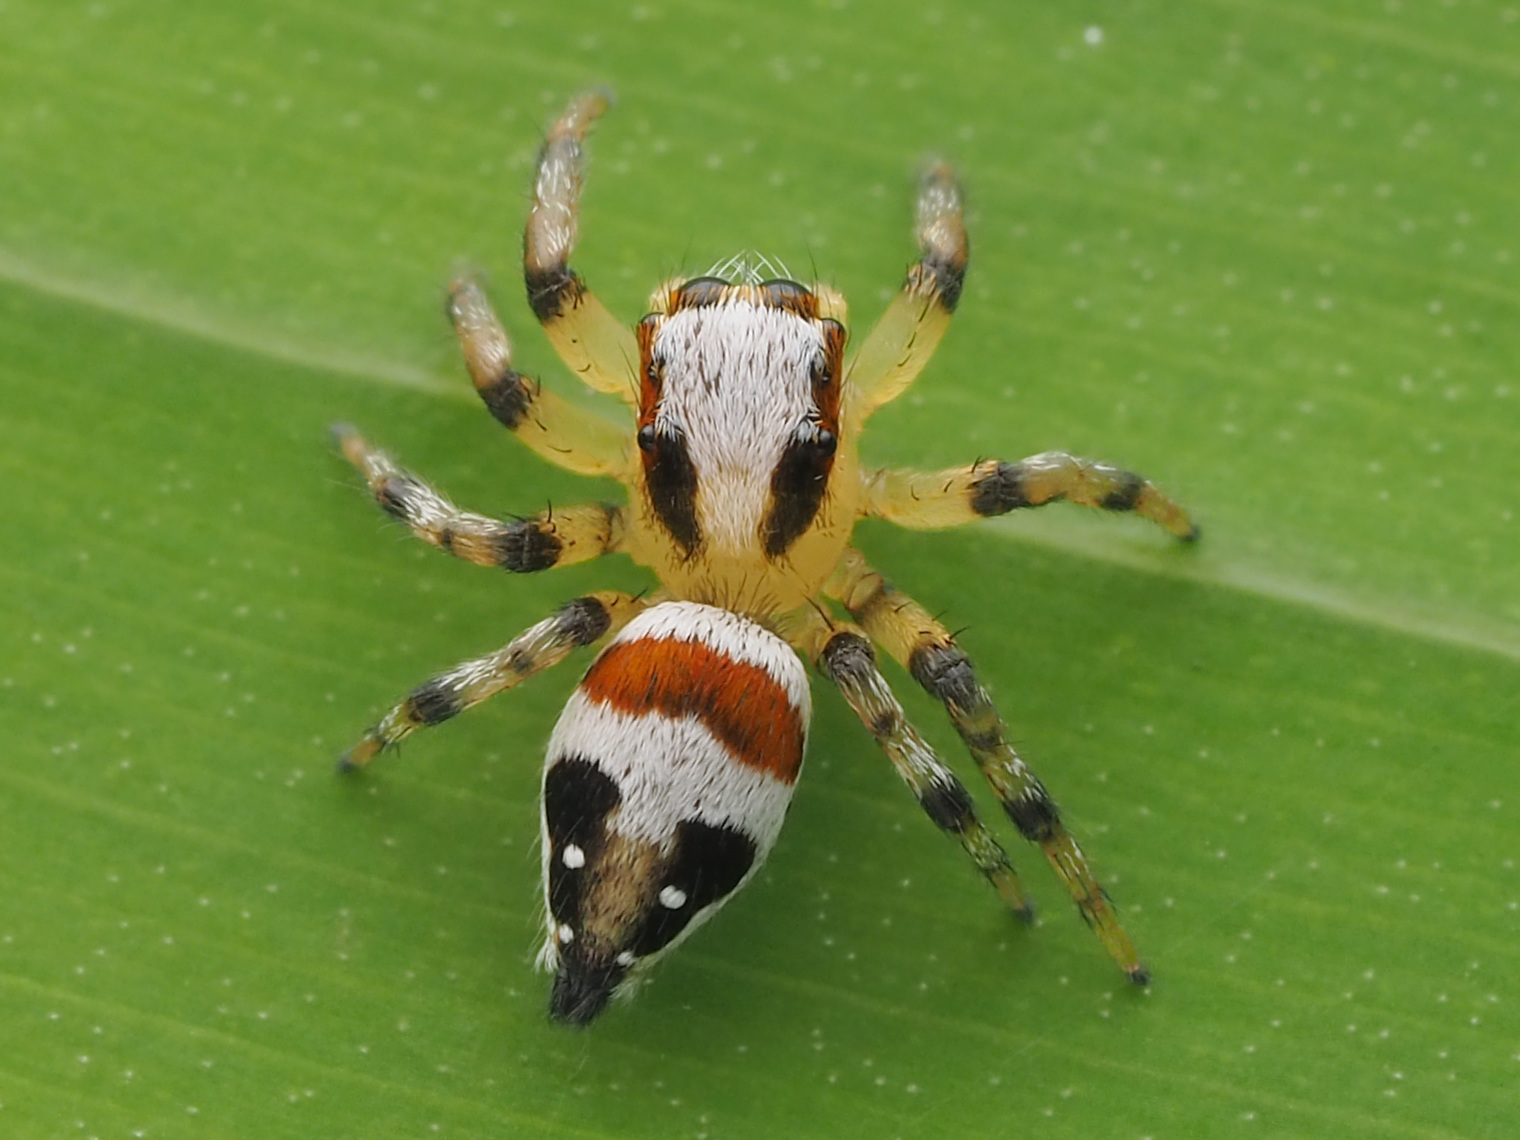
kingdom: Animalia
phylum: Arthropoda
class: Arachnida
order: Araneae
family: Salticidae
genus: Nycerella
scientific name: Nycerella delecta
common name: Jumping spiders
